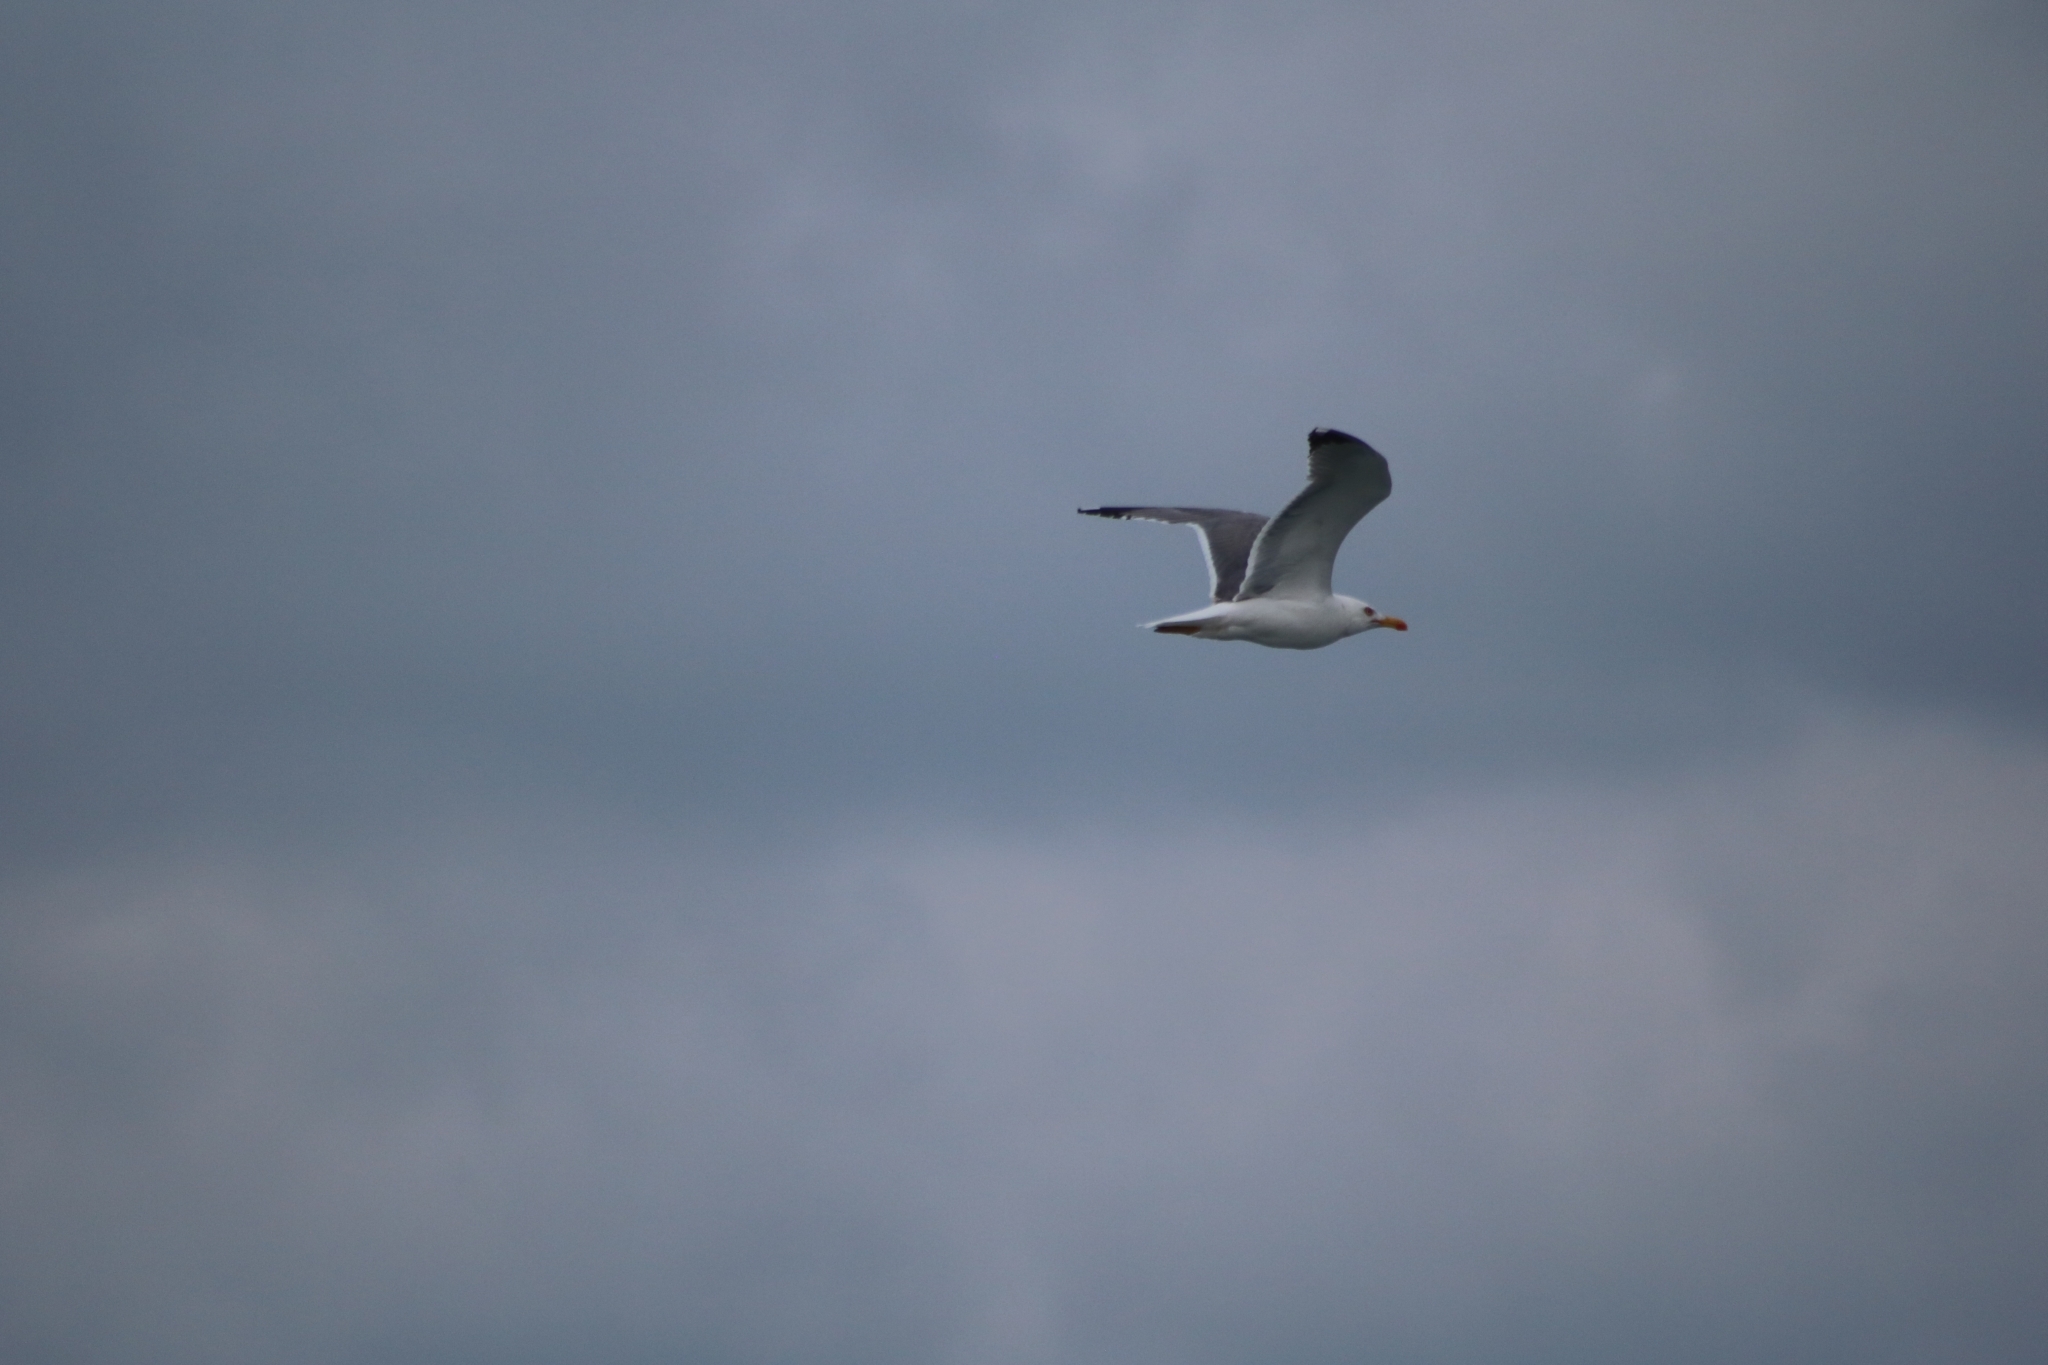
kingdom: Animalia
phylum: Chordata
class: Aves
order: Charadriiformes
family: Laridae
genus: Larus
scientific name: Larus michahellis
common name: Yellow-legged gull
